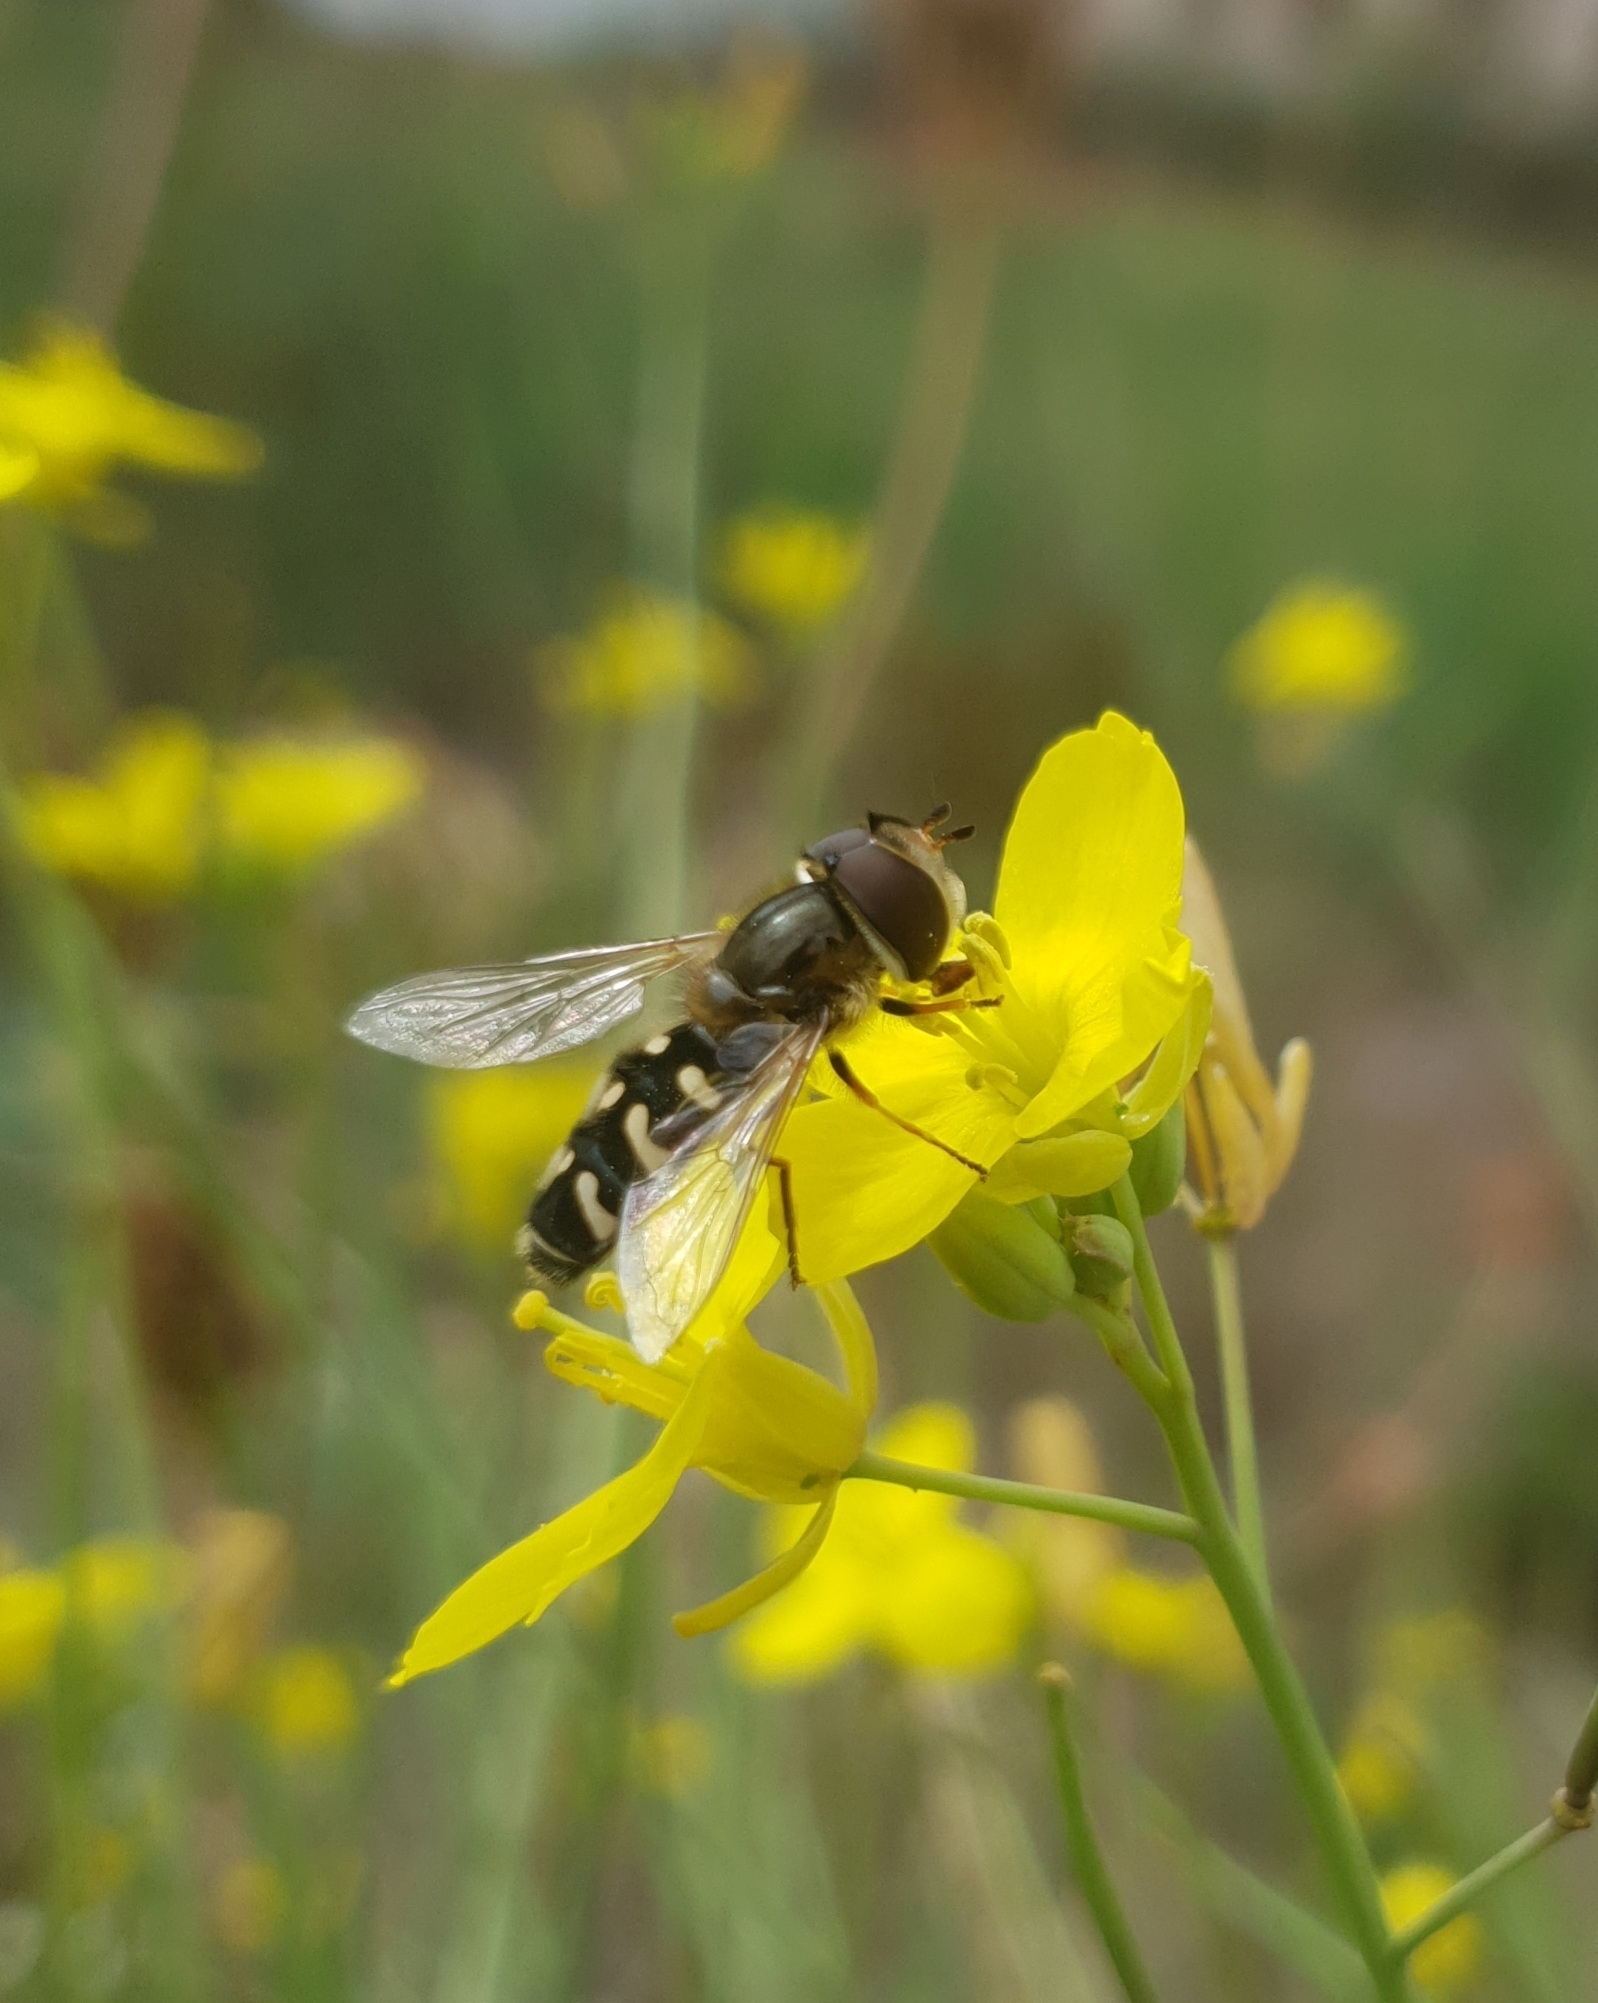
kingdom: Animalia
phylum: Arthropoda
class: Insecta
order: Diptera
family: Syrphidae
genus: Scaeva
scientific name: Scaeva pyrastri
